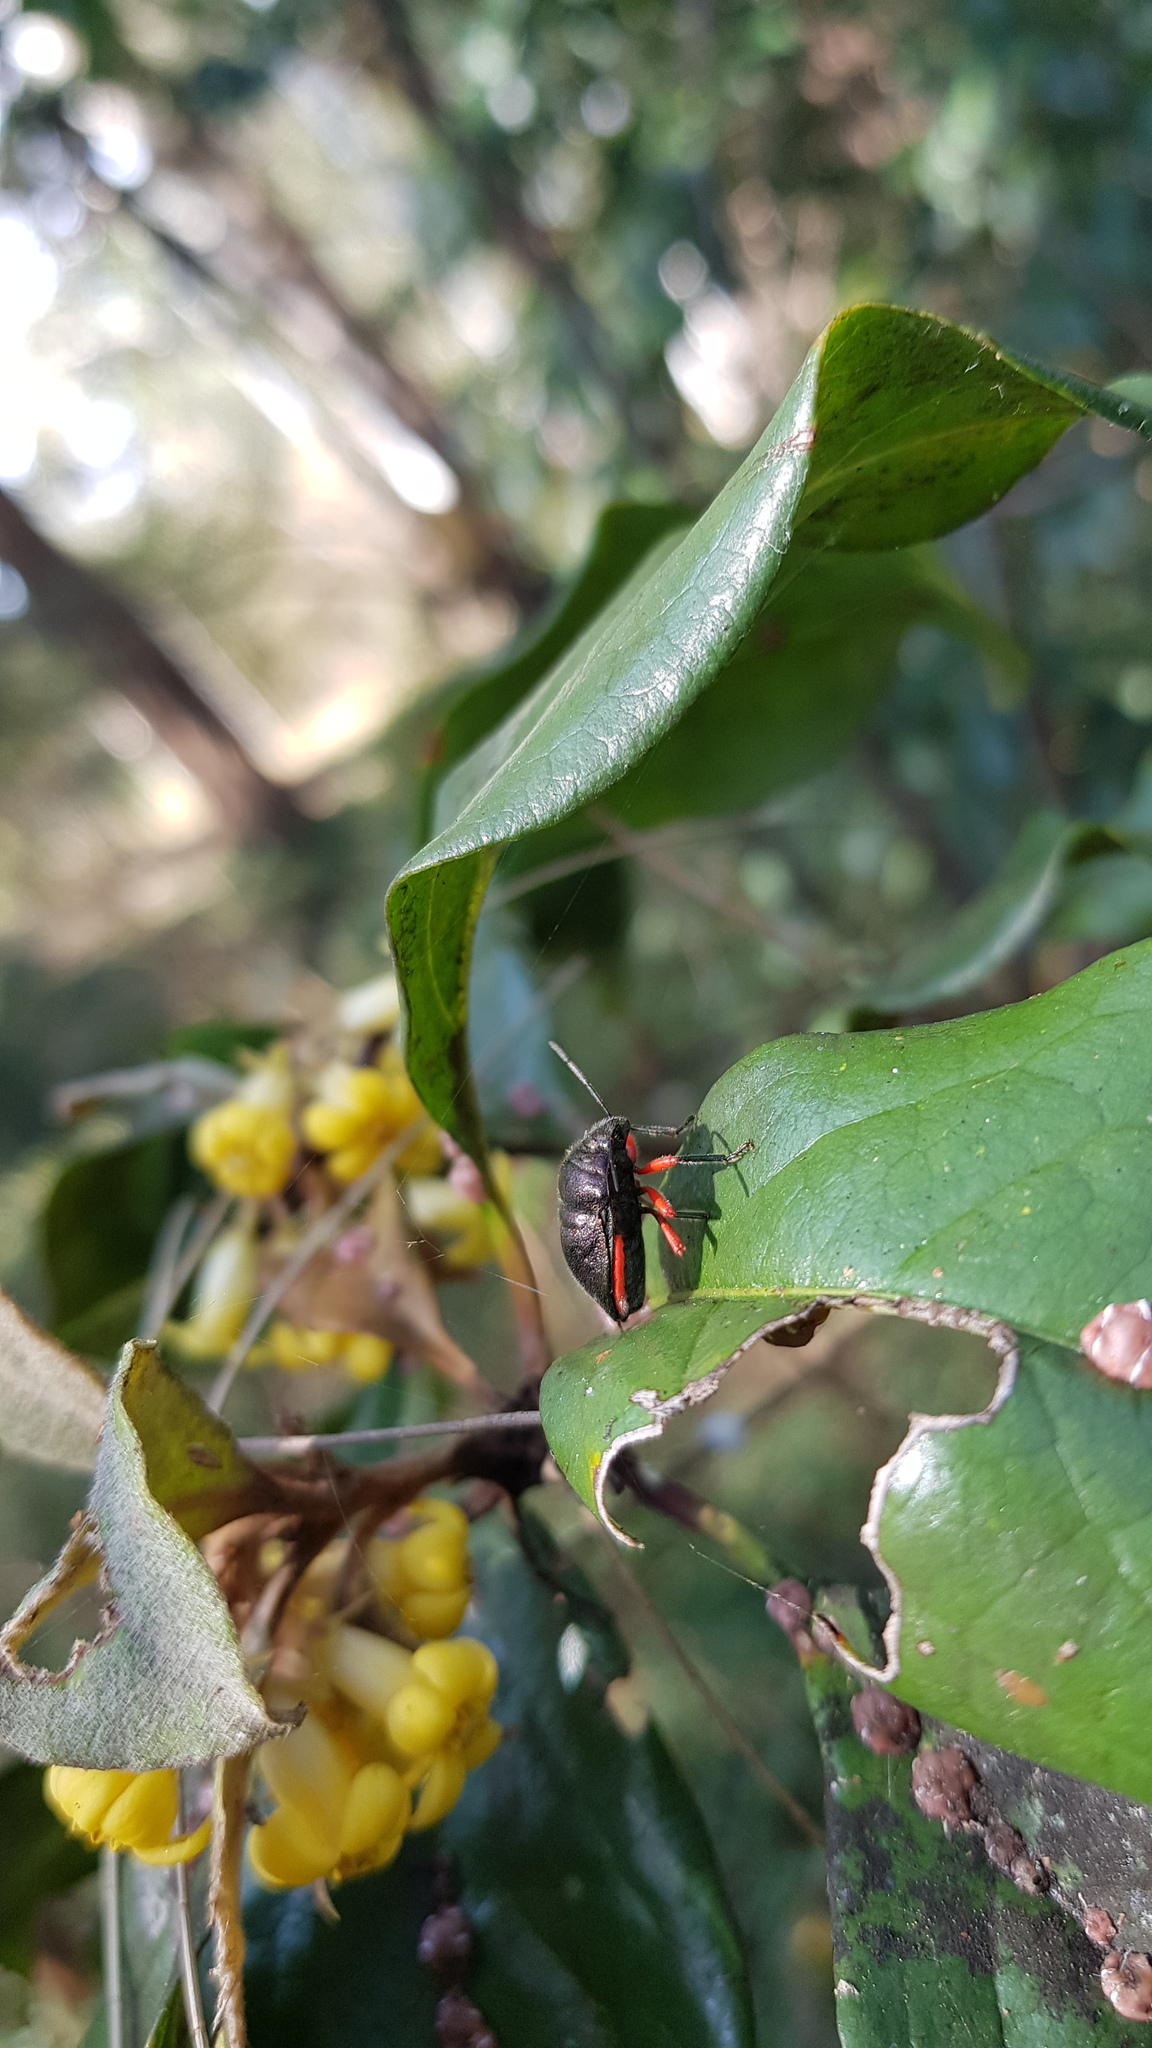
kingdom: Animalia
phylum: Arthropoda
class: Insecta
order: Hemiptera
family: Scutelleridae
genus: Lampromicra
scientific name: Lampromicra
